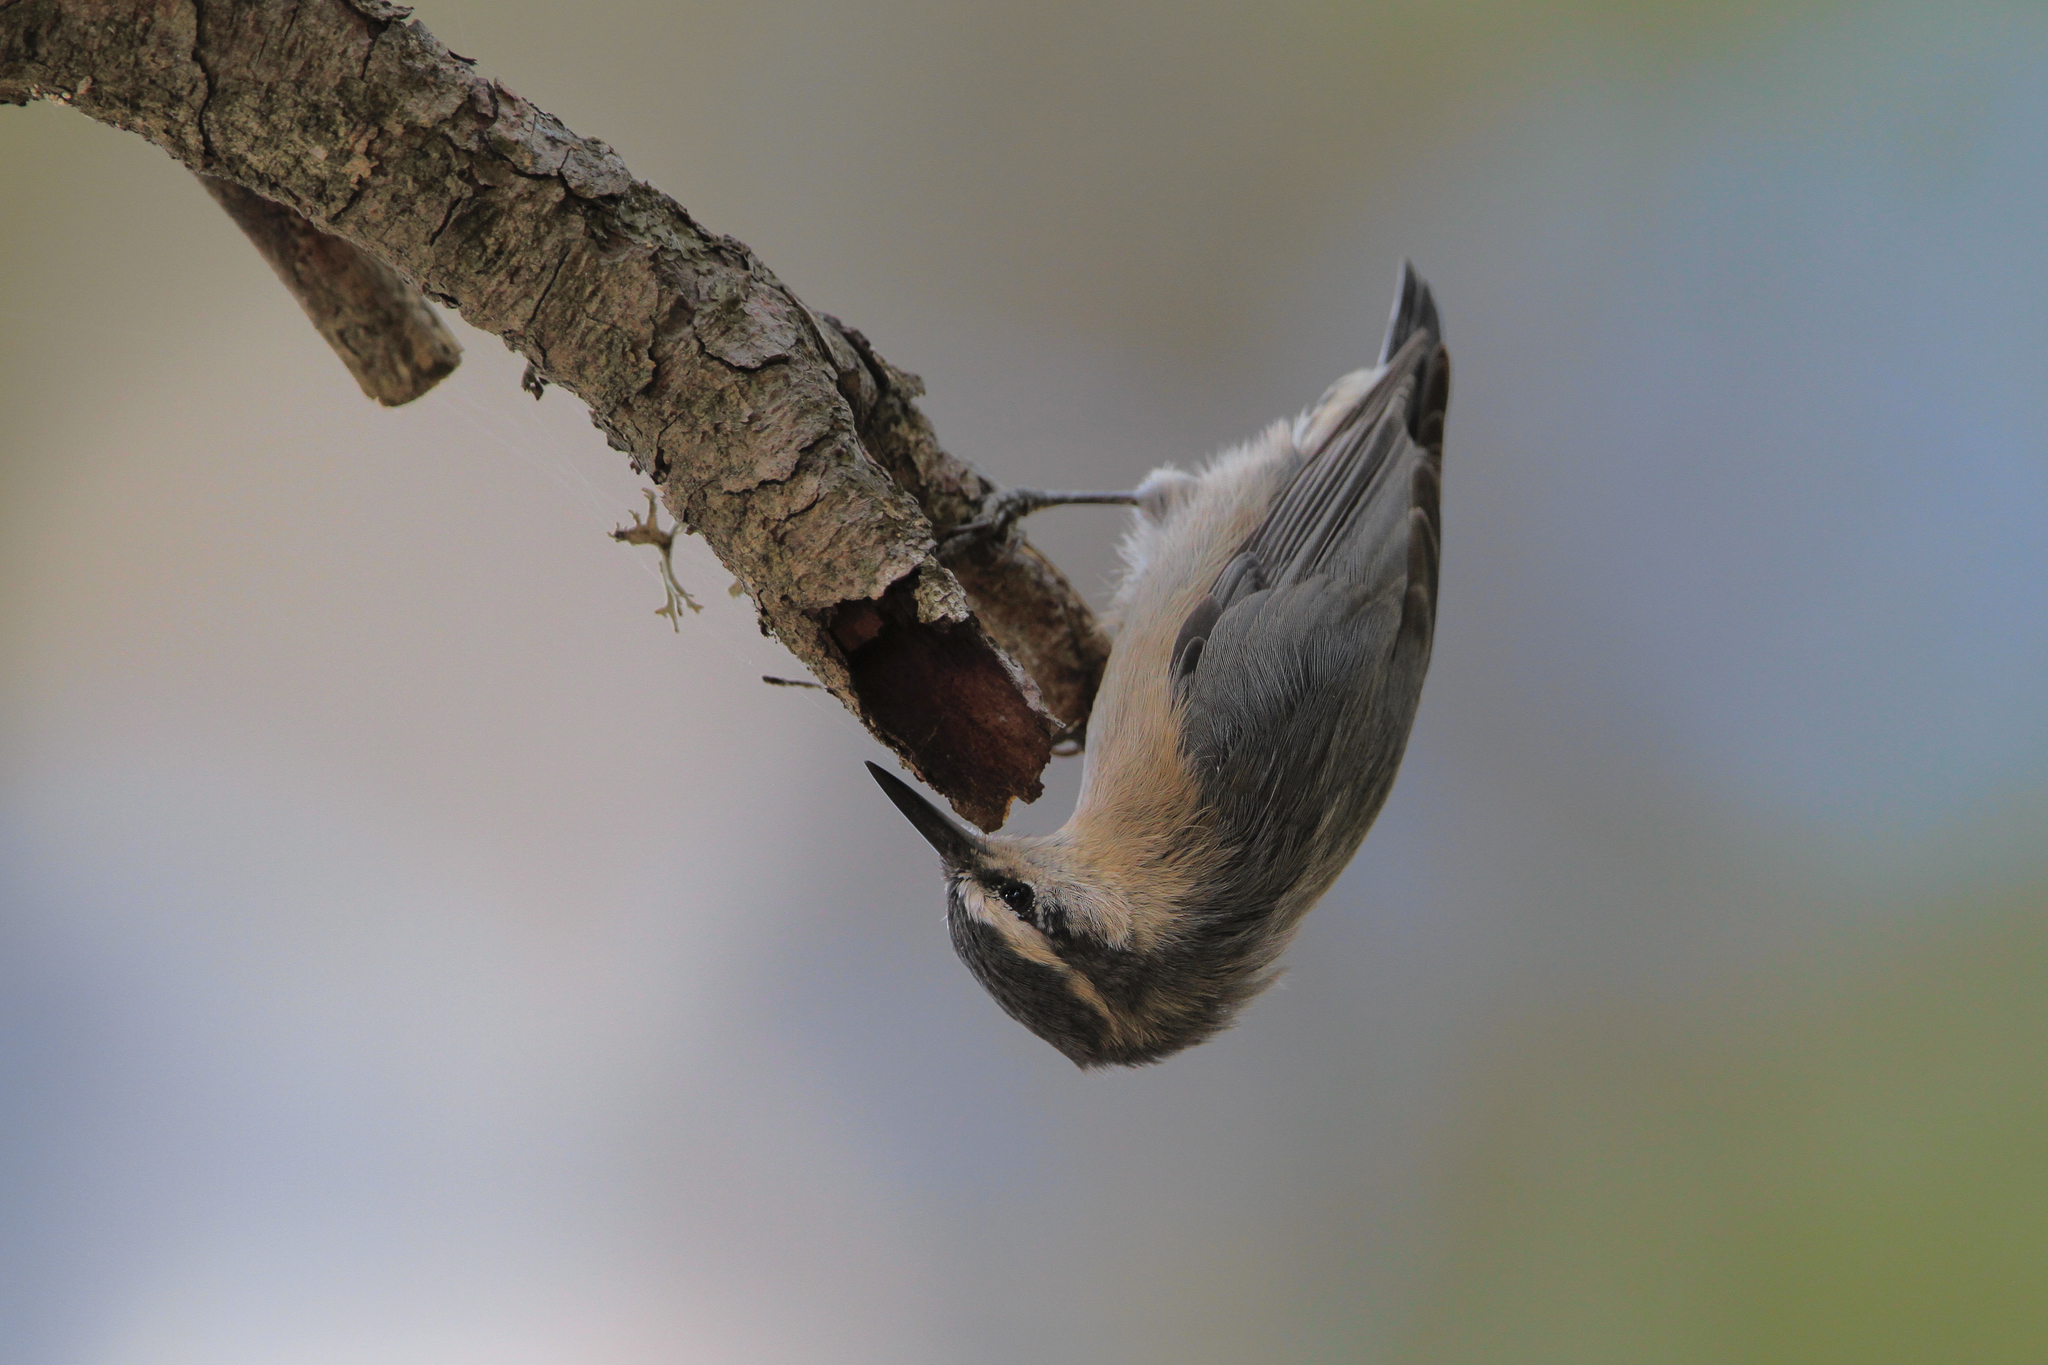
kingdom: Animalia
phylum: Chordata
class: Aves
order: Passeriformes
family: Sittidae
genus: Sitta
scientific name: Sitta whiteheadi
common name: Corsican nuthatch
